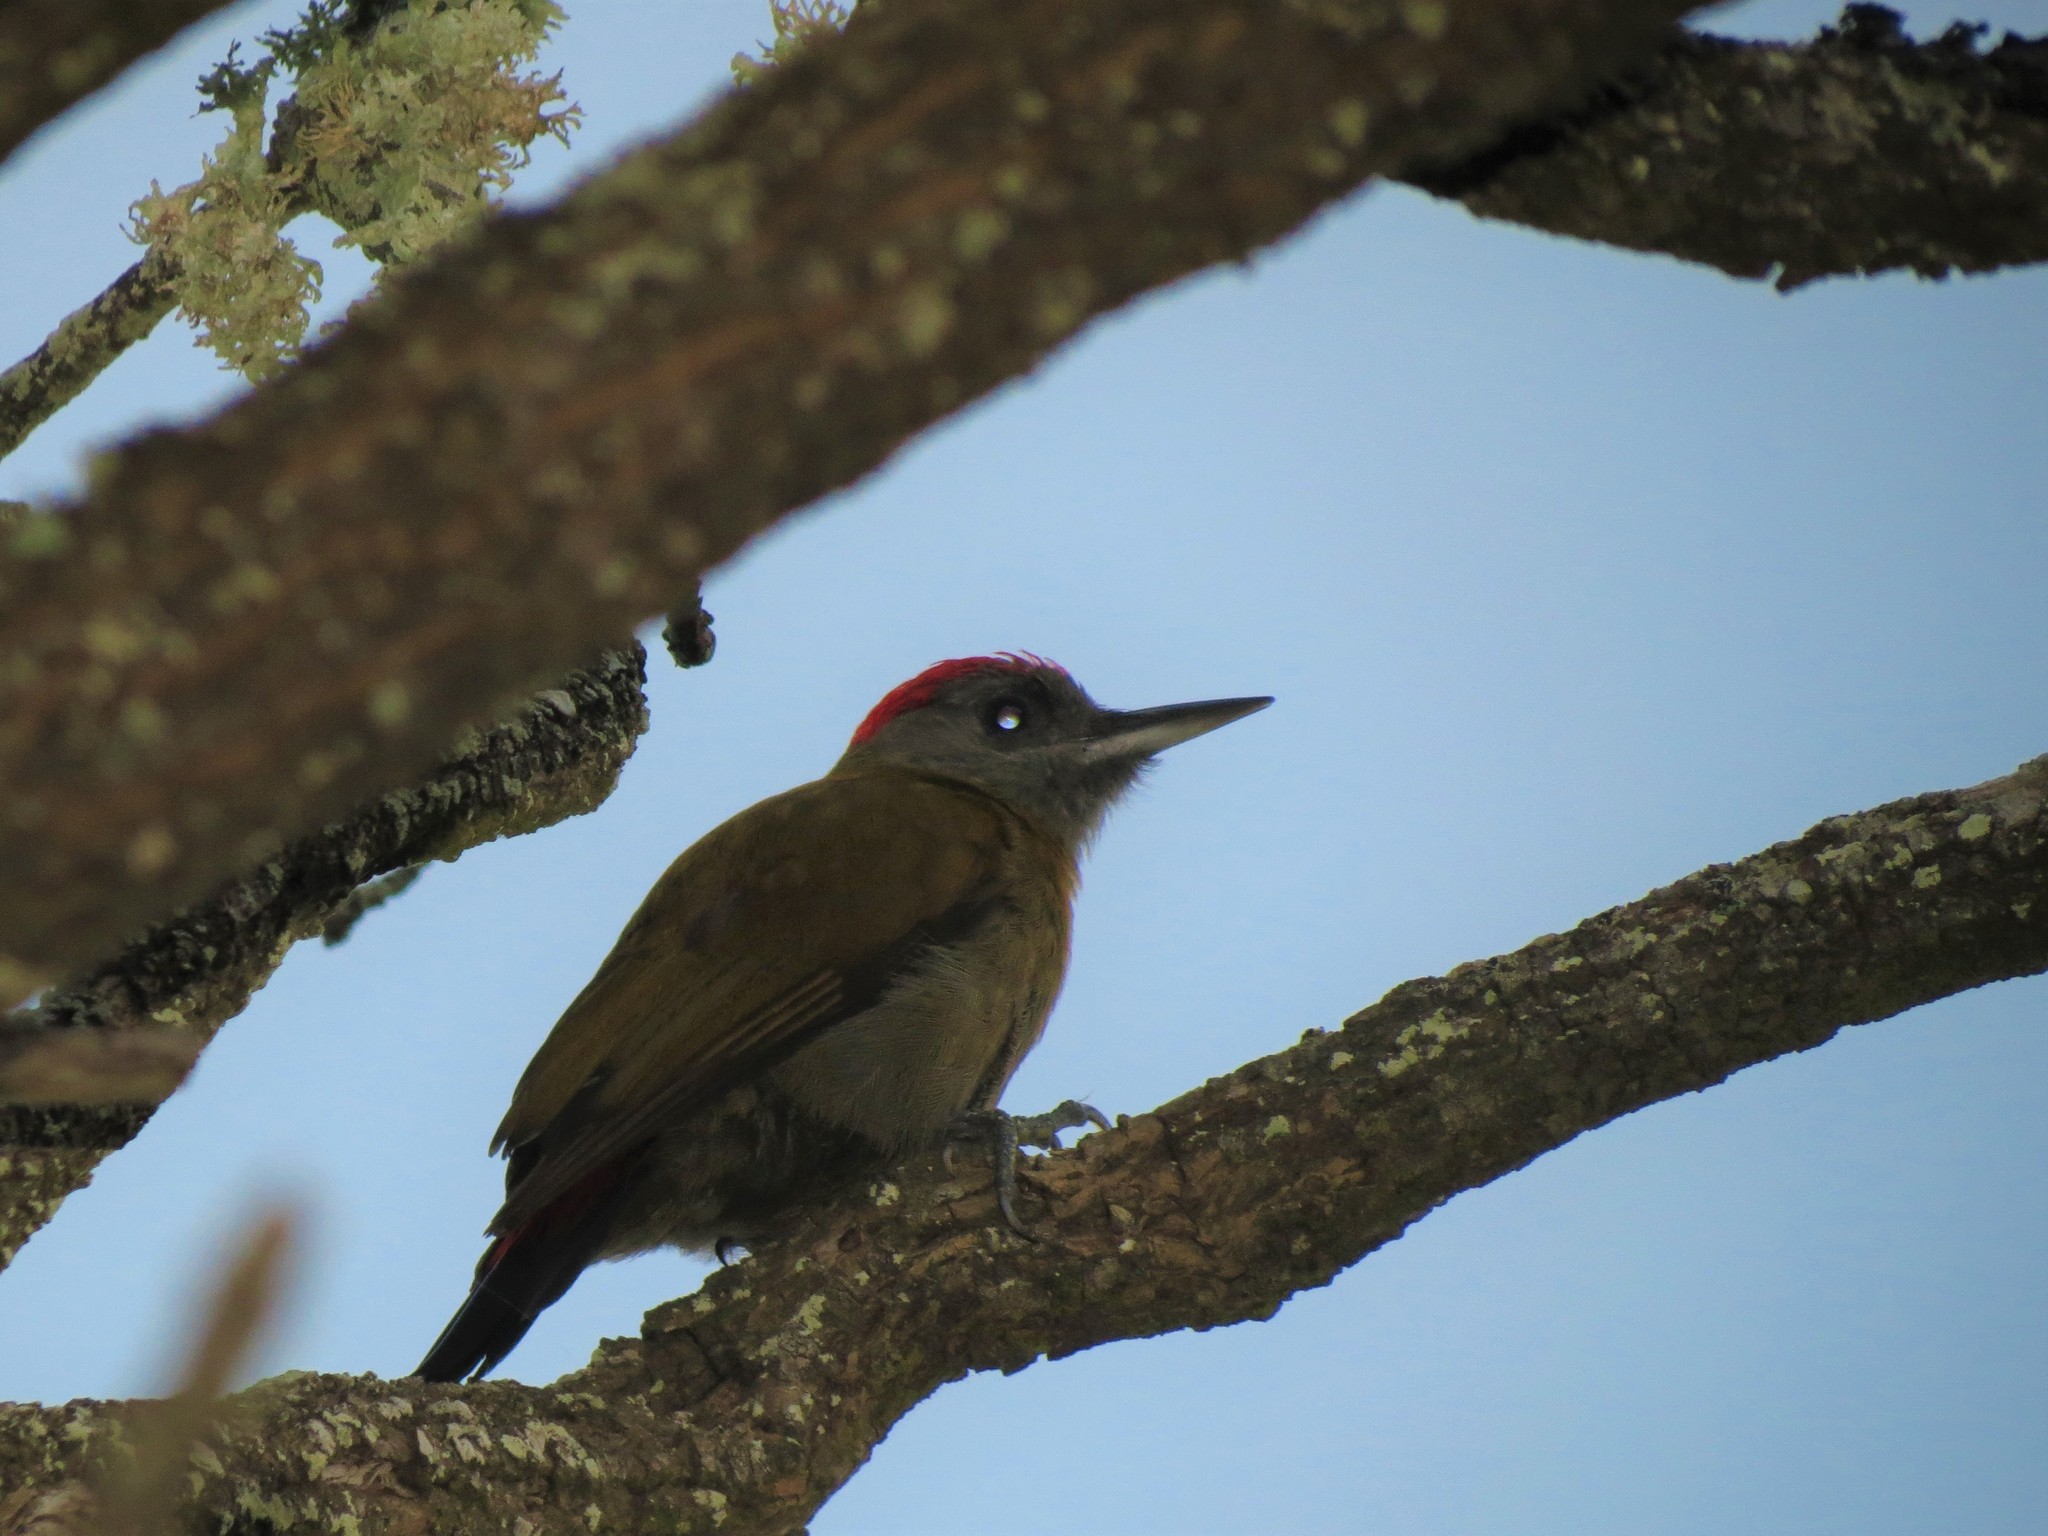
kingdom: Animalia
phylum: Chordata
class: Aves
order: Piciformes
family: Picidae
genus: Dendropicos
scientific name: Dendropicos griseocephalus
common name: Olive woodpecker
